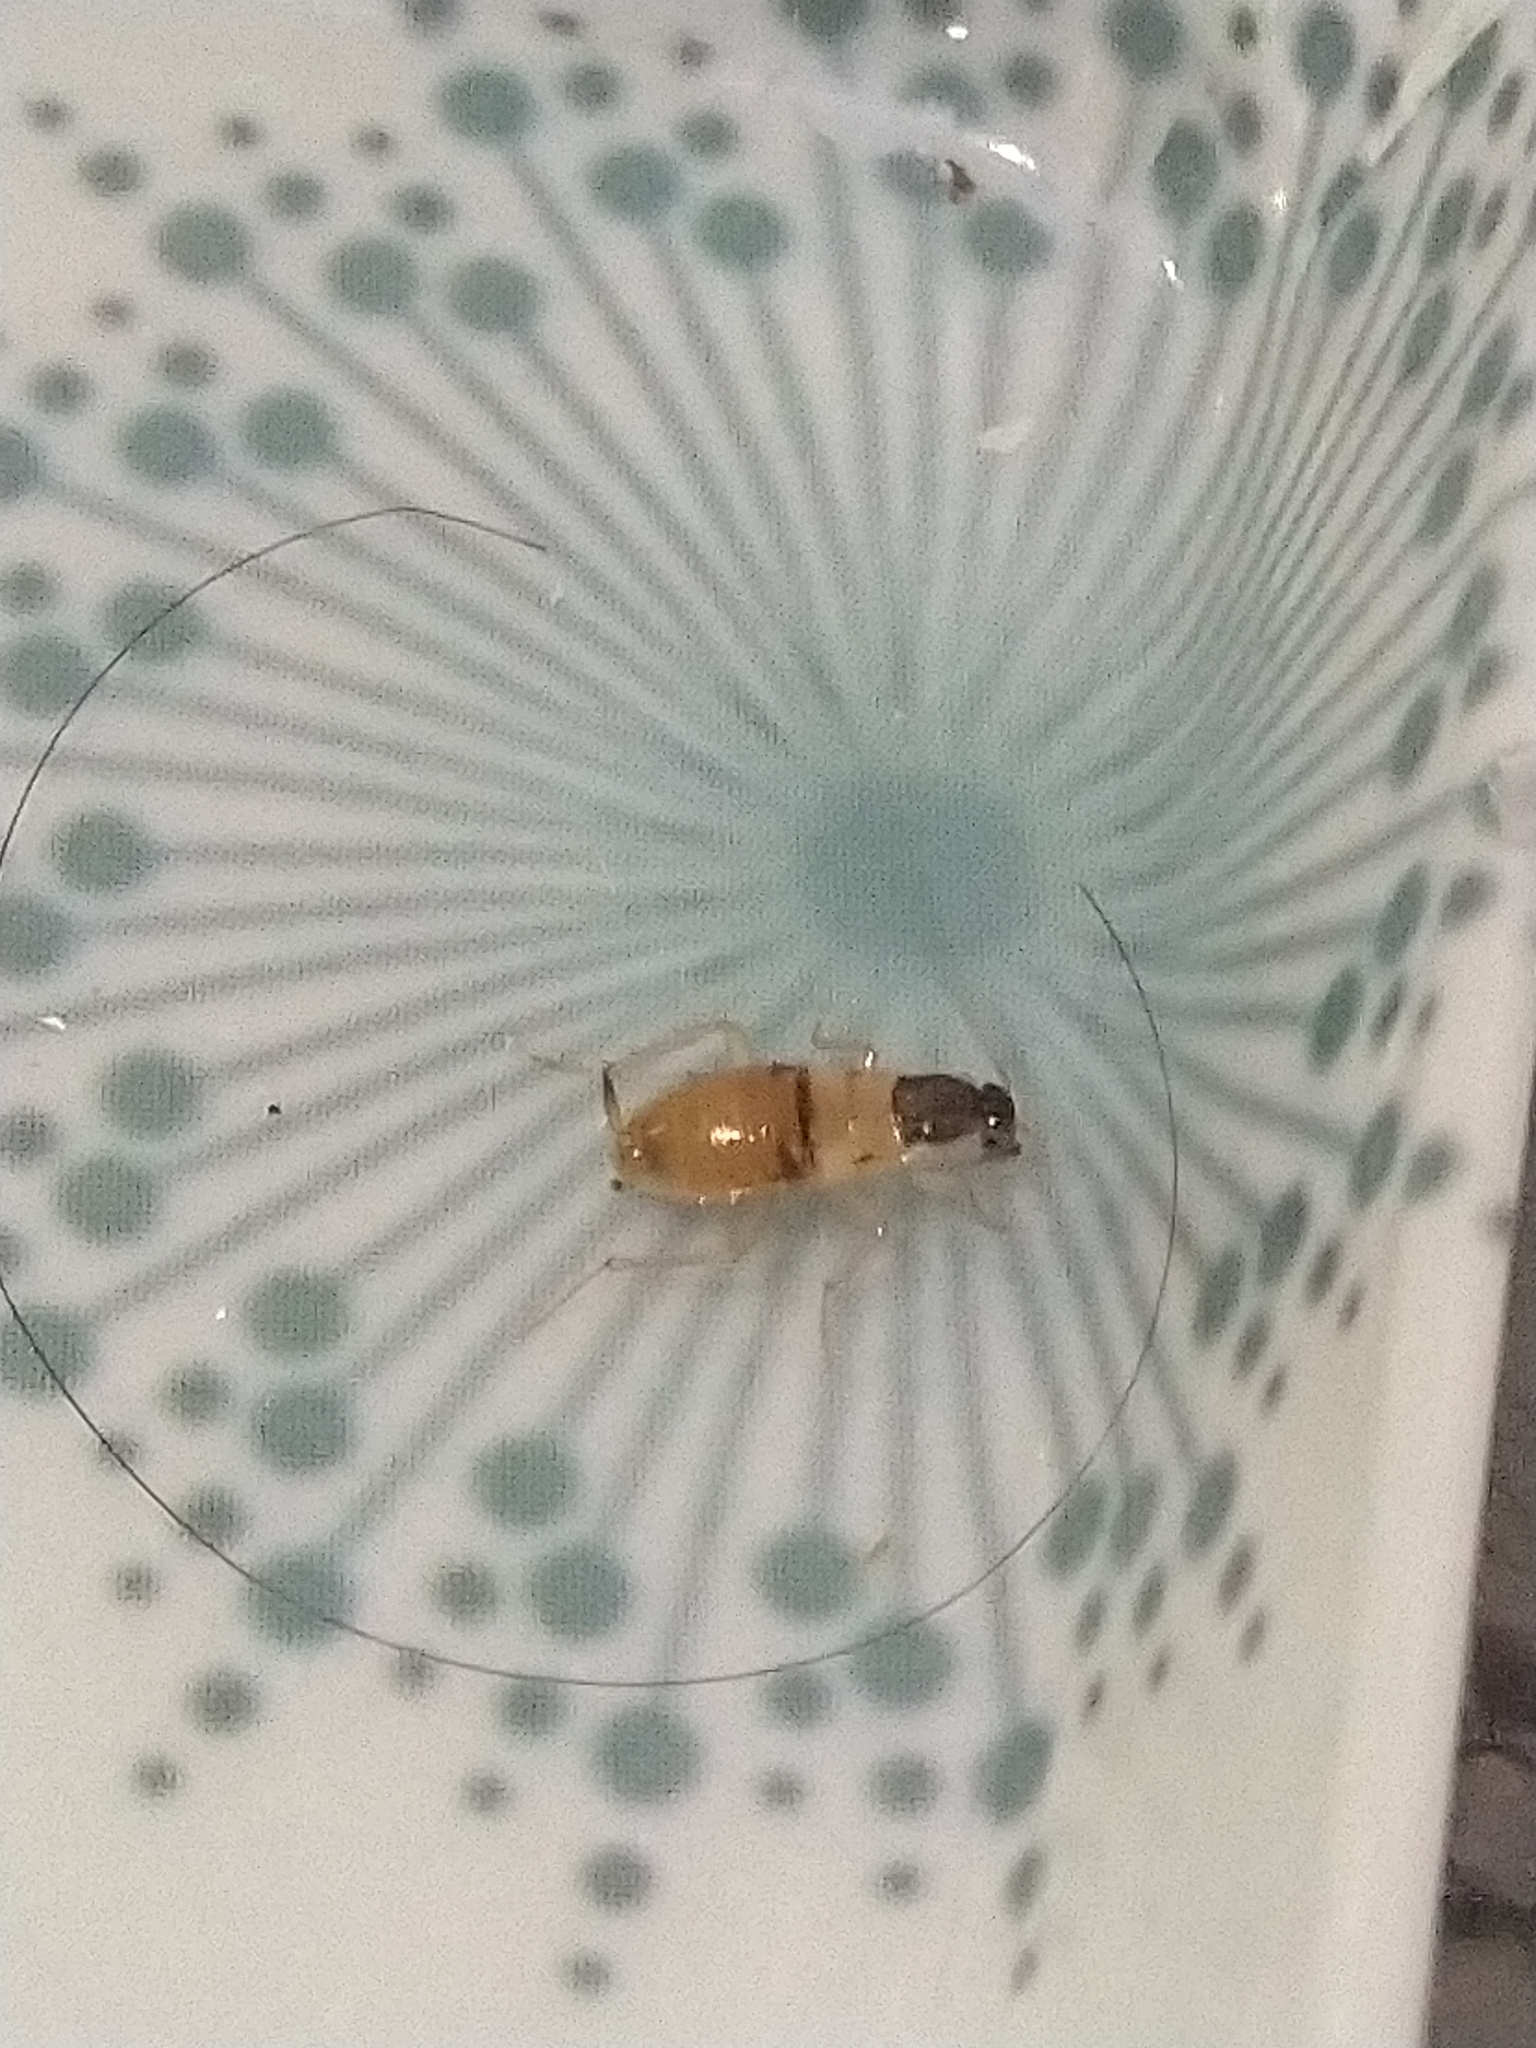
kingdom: Animalia
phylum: Arthropoda
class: Insecta
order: Blattodea
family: Ectobiidae
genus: Supella
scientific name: Supella longipalpa
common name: Brown-banded cockroach
